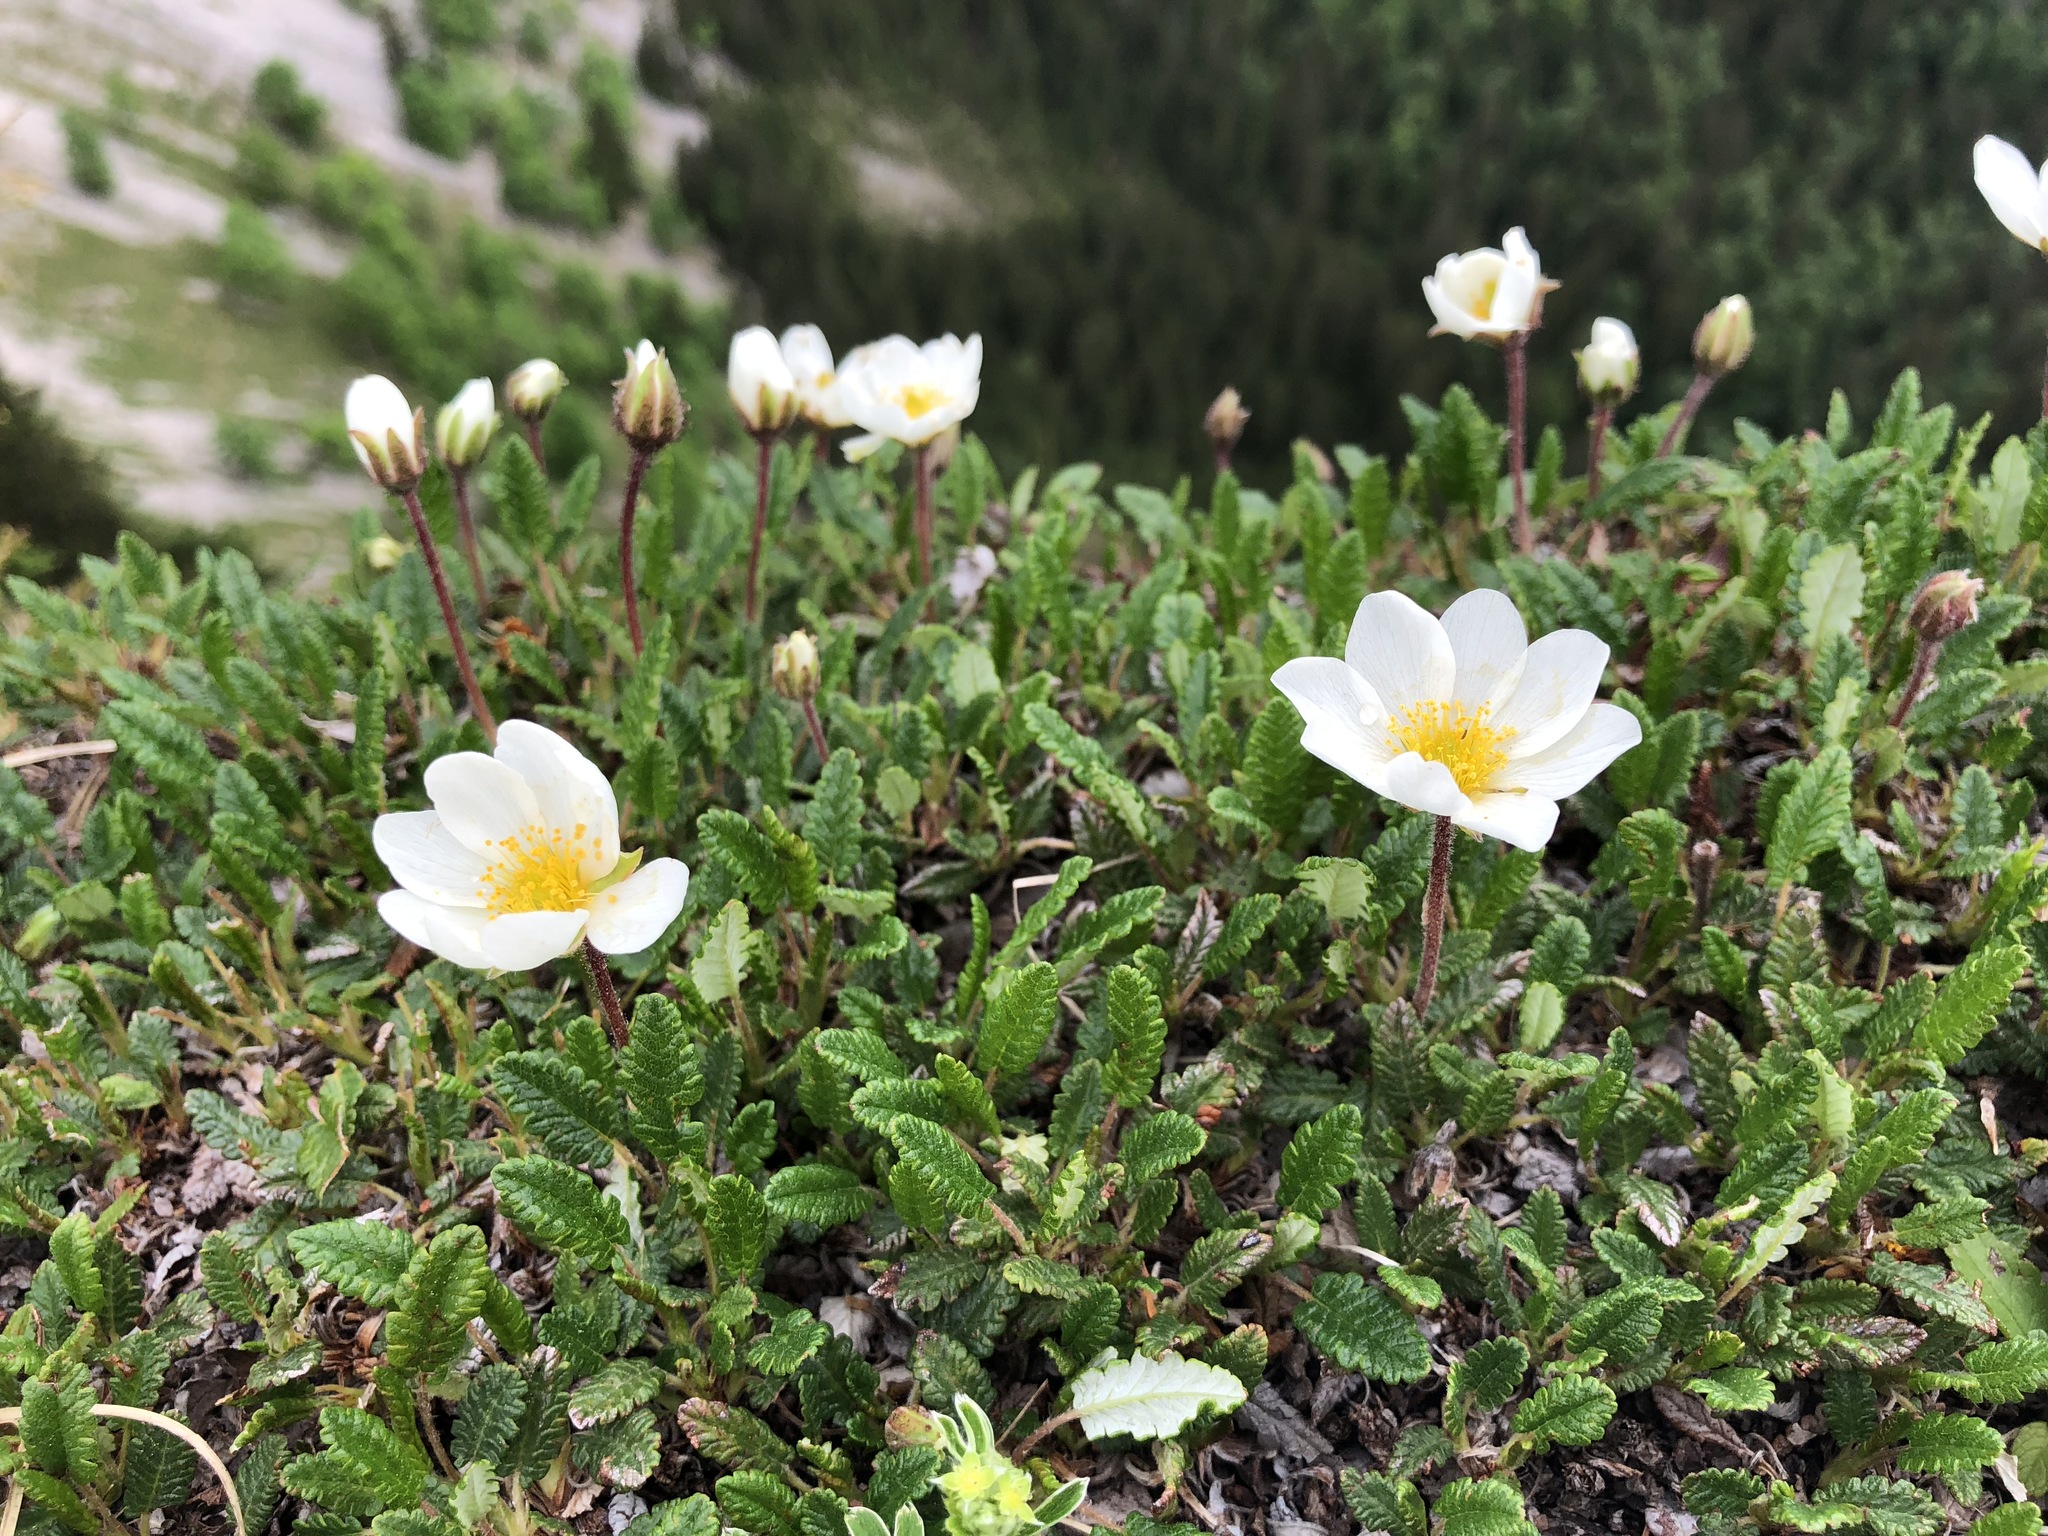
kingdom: Plantae
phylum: Tracheophyta
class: Magnoliopsida
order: Rosales
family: Rosaceae
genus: Dryas
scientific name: Dryas octopetala
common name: Eight-petal mountain-avens
